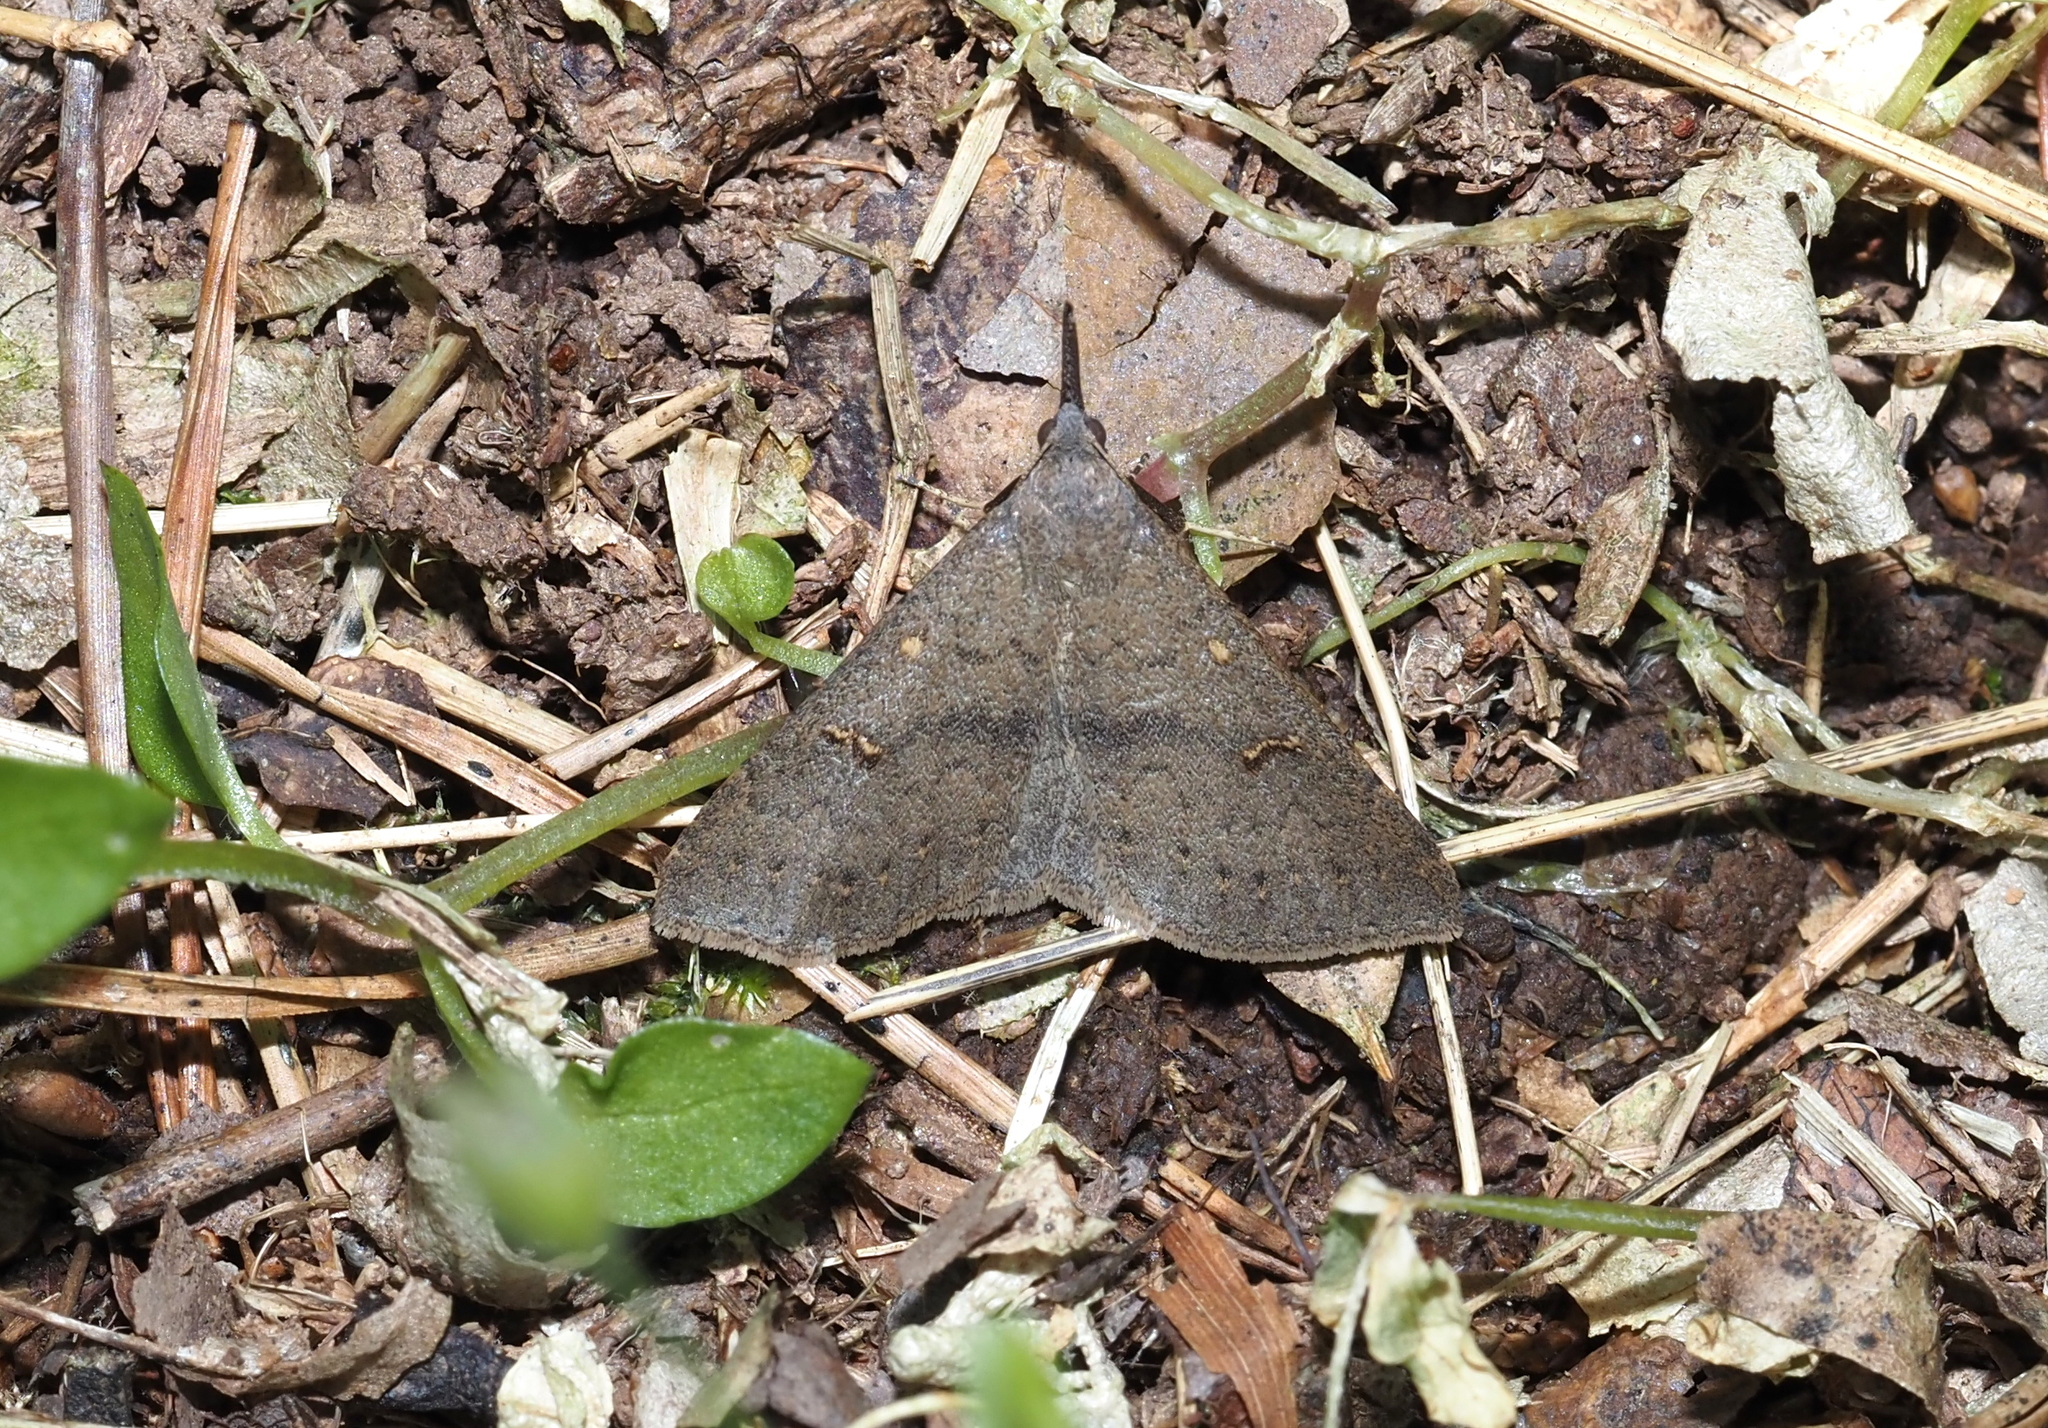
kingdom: Animalia
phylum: Arthropoda
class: Insecta
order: Lepidoptera
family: Erebidae
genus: Renia
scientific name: Renia adspergillus
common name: Speckled renia moth
